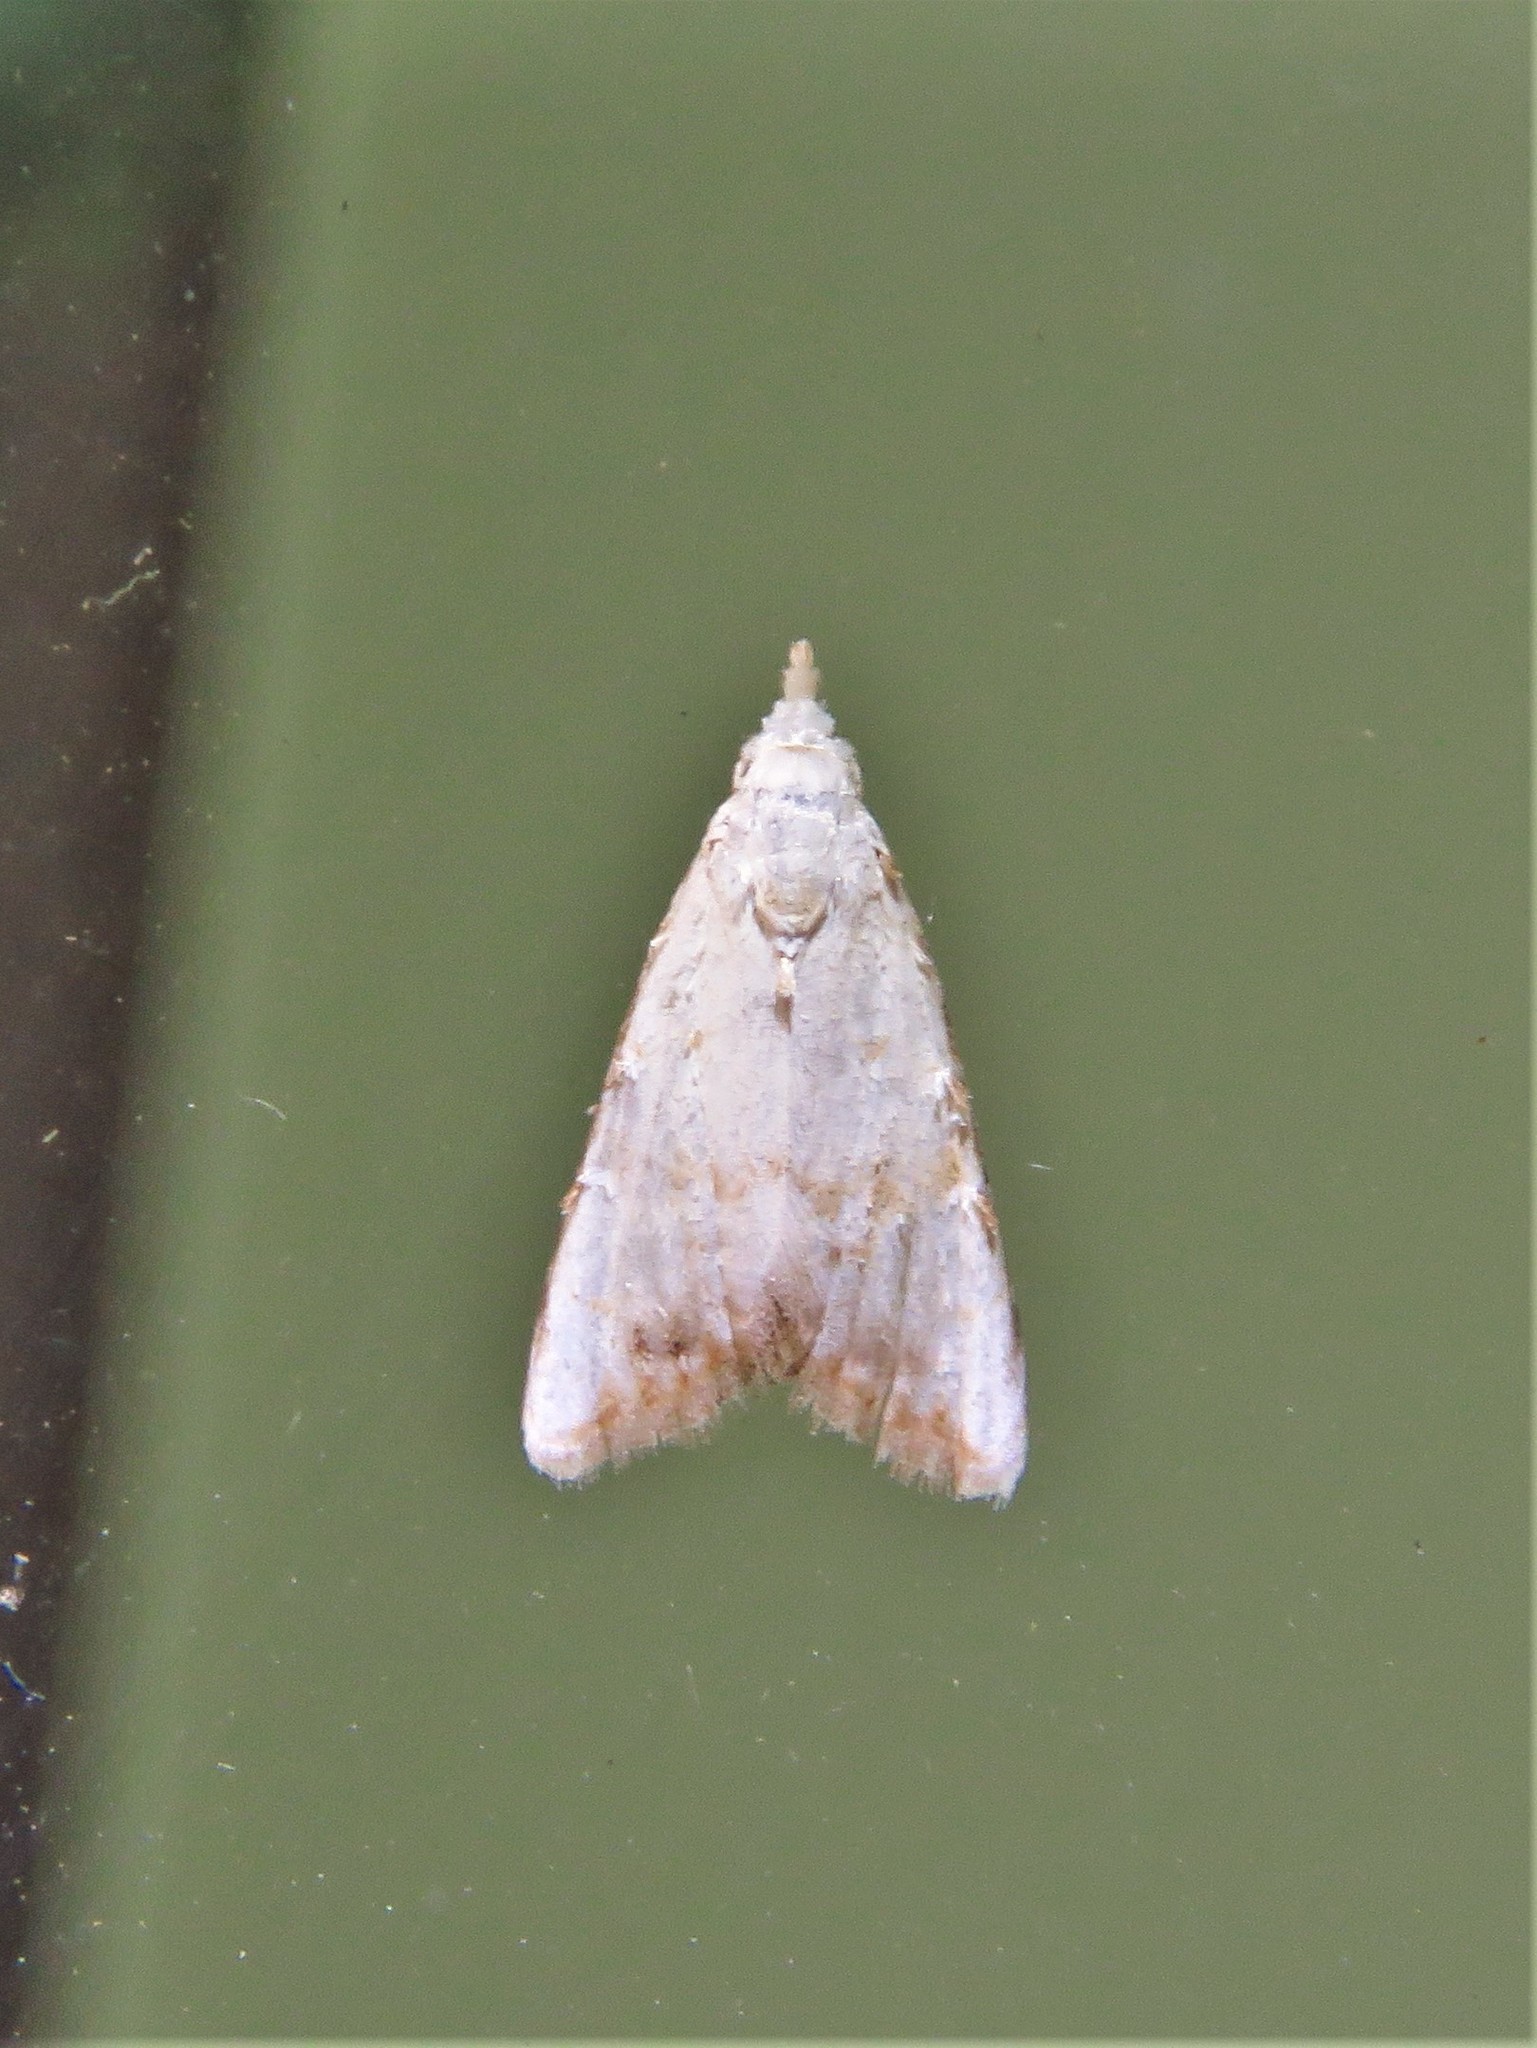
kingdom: Animalia
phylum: Arthropoda
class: Insecta
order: Lepidoptera
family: Nolidae
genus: Nola
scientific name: Nola cereella
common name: Sorghum webworm moth
